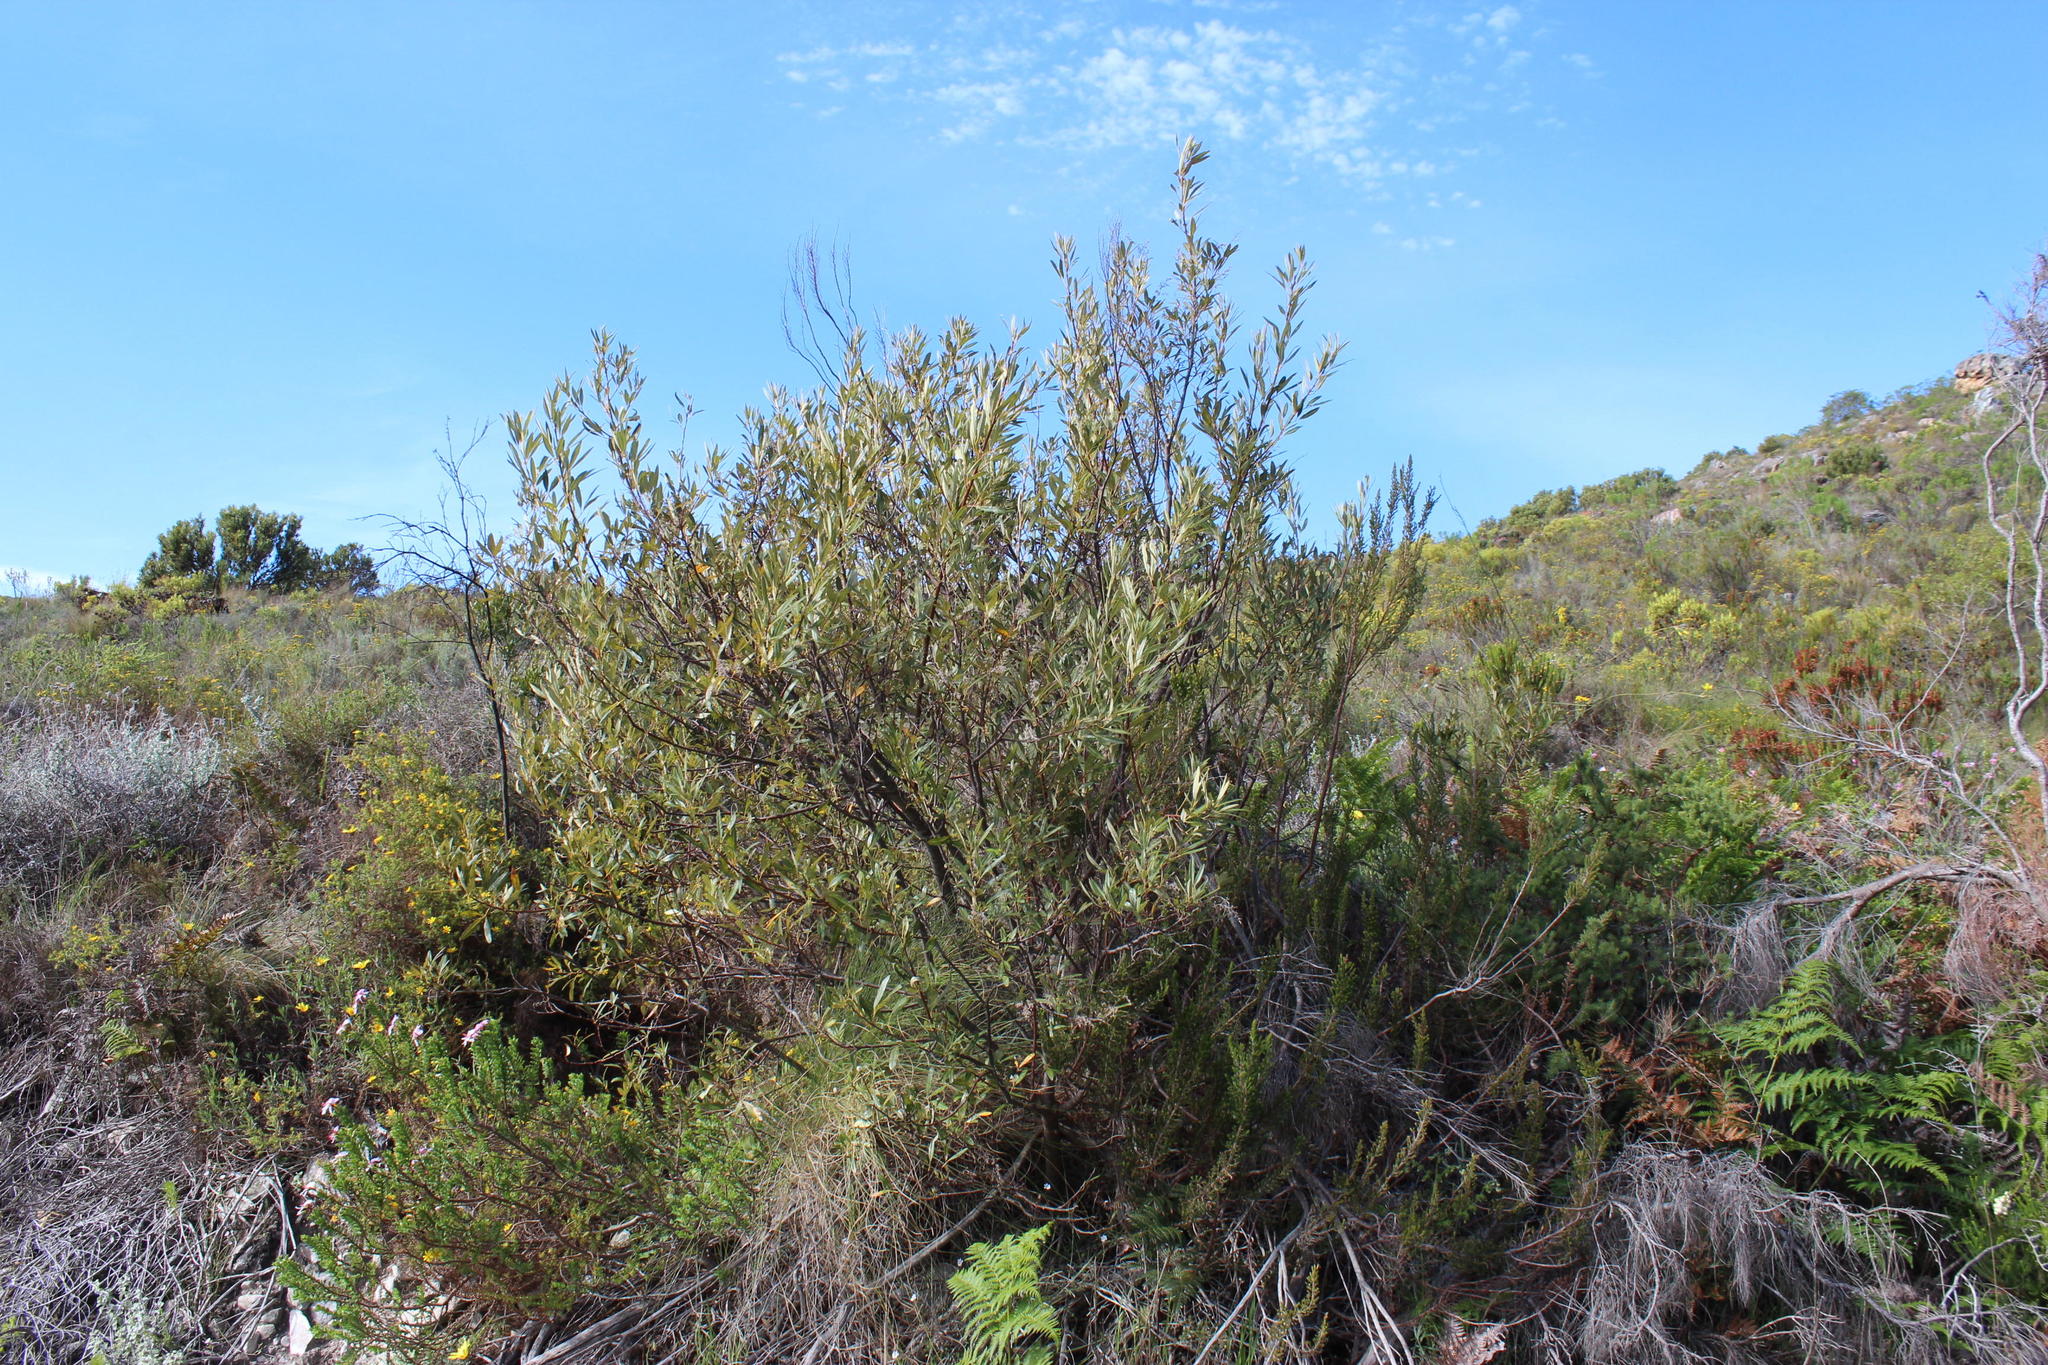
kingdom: Plantae
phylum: Tracheophyta
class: Magnoliopsida
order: Sapindales
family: Anacardiaceae
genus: Searsia
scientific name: Searsia angustifolia
